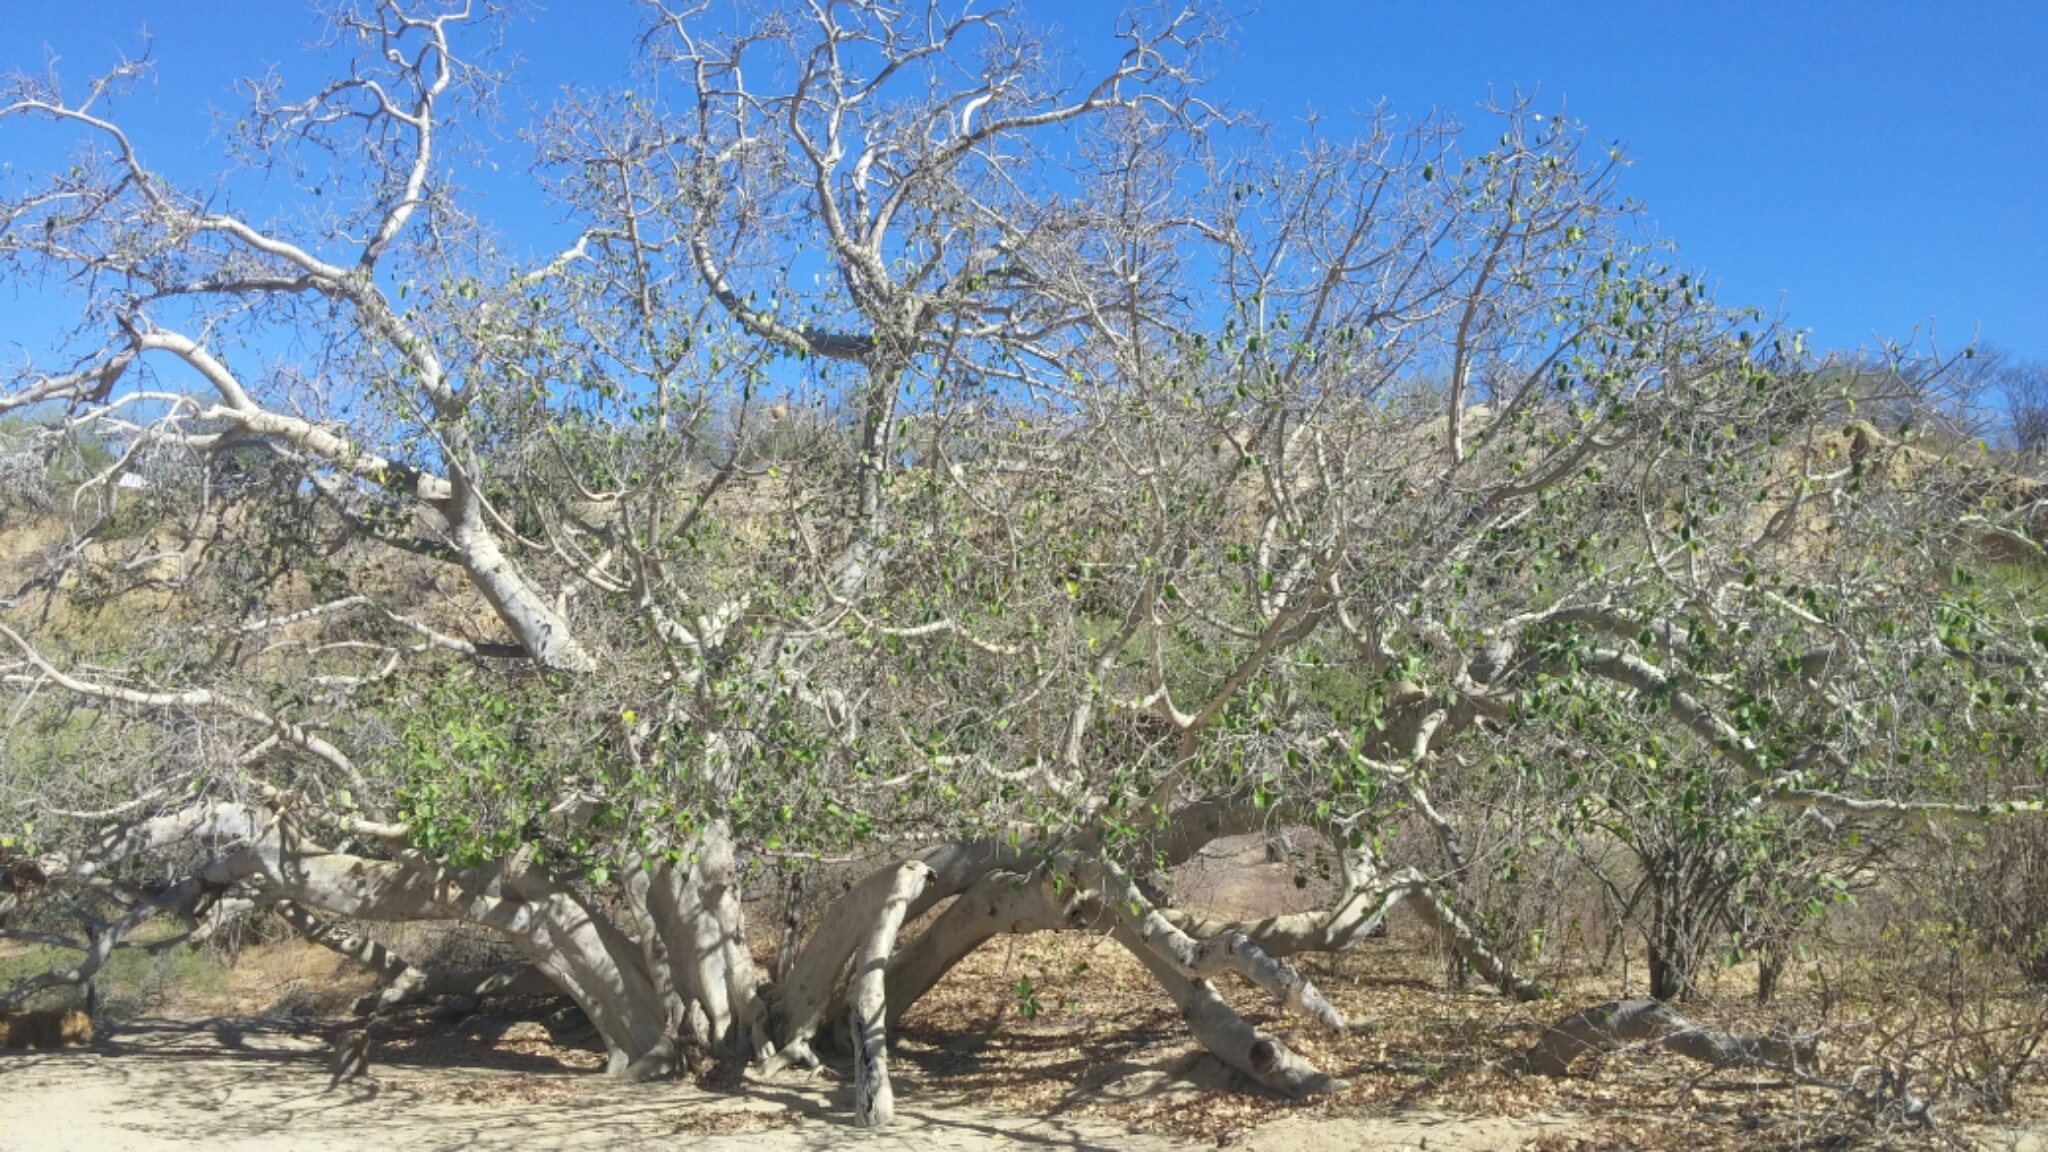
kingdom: Plantae
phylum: Tracheophyta
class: Magnoliopsida
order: Rosales
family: Moraceae
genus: Ficus
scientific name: Ficus petiolaris
